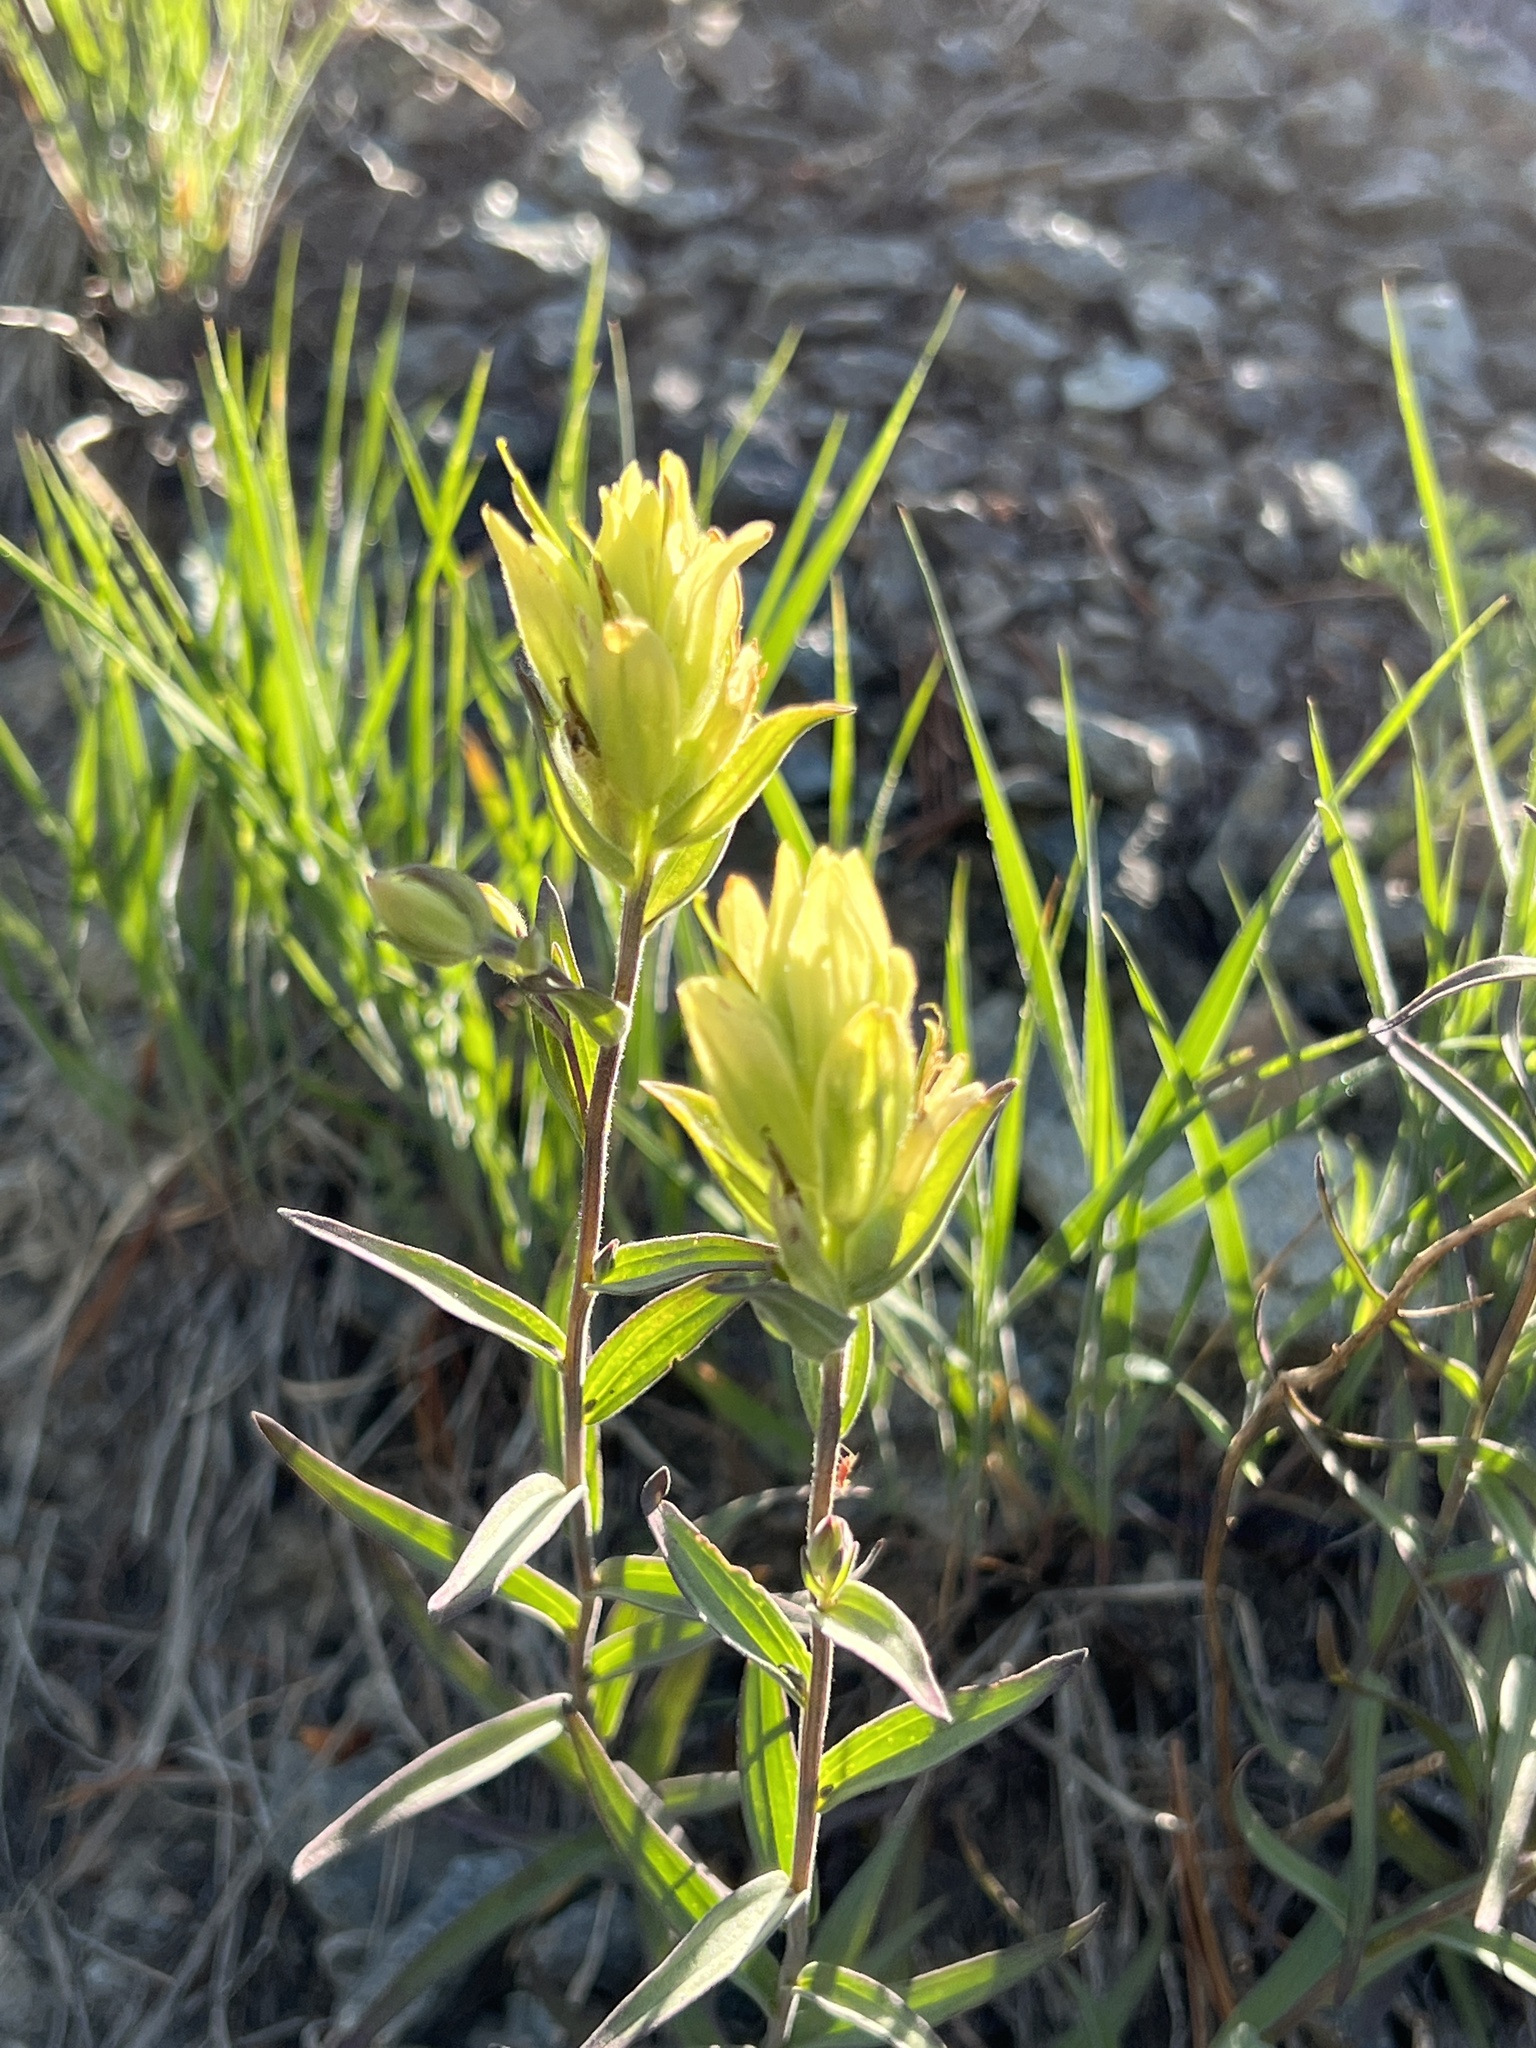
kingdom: Plantae
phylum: Tracheophyta
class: Magnoliopsida
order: Lamiales
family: Orobanchaceae
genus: Castilleja
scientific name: Castilleja elmeri
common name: Elmer's paintbrush
